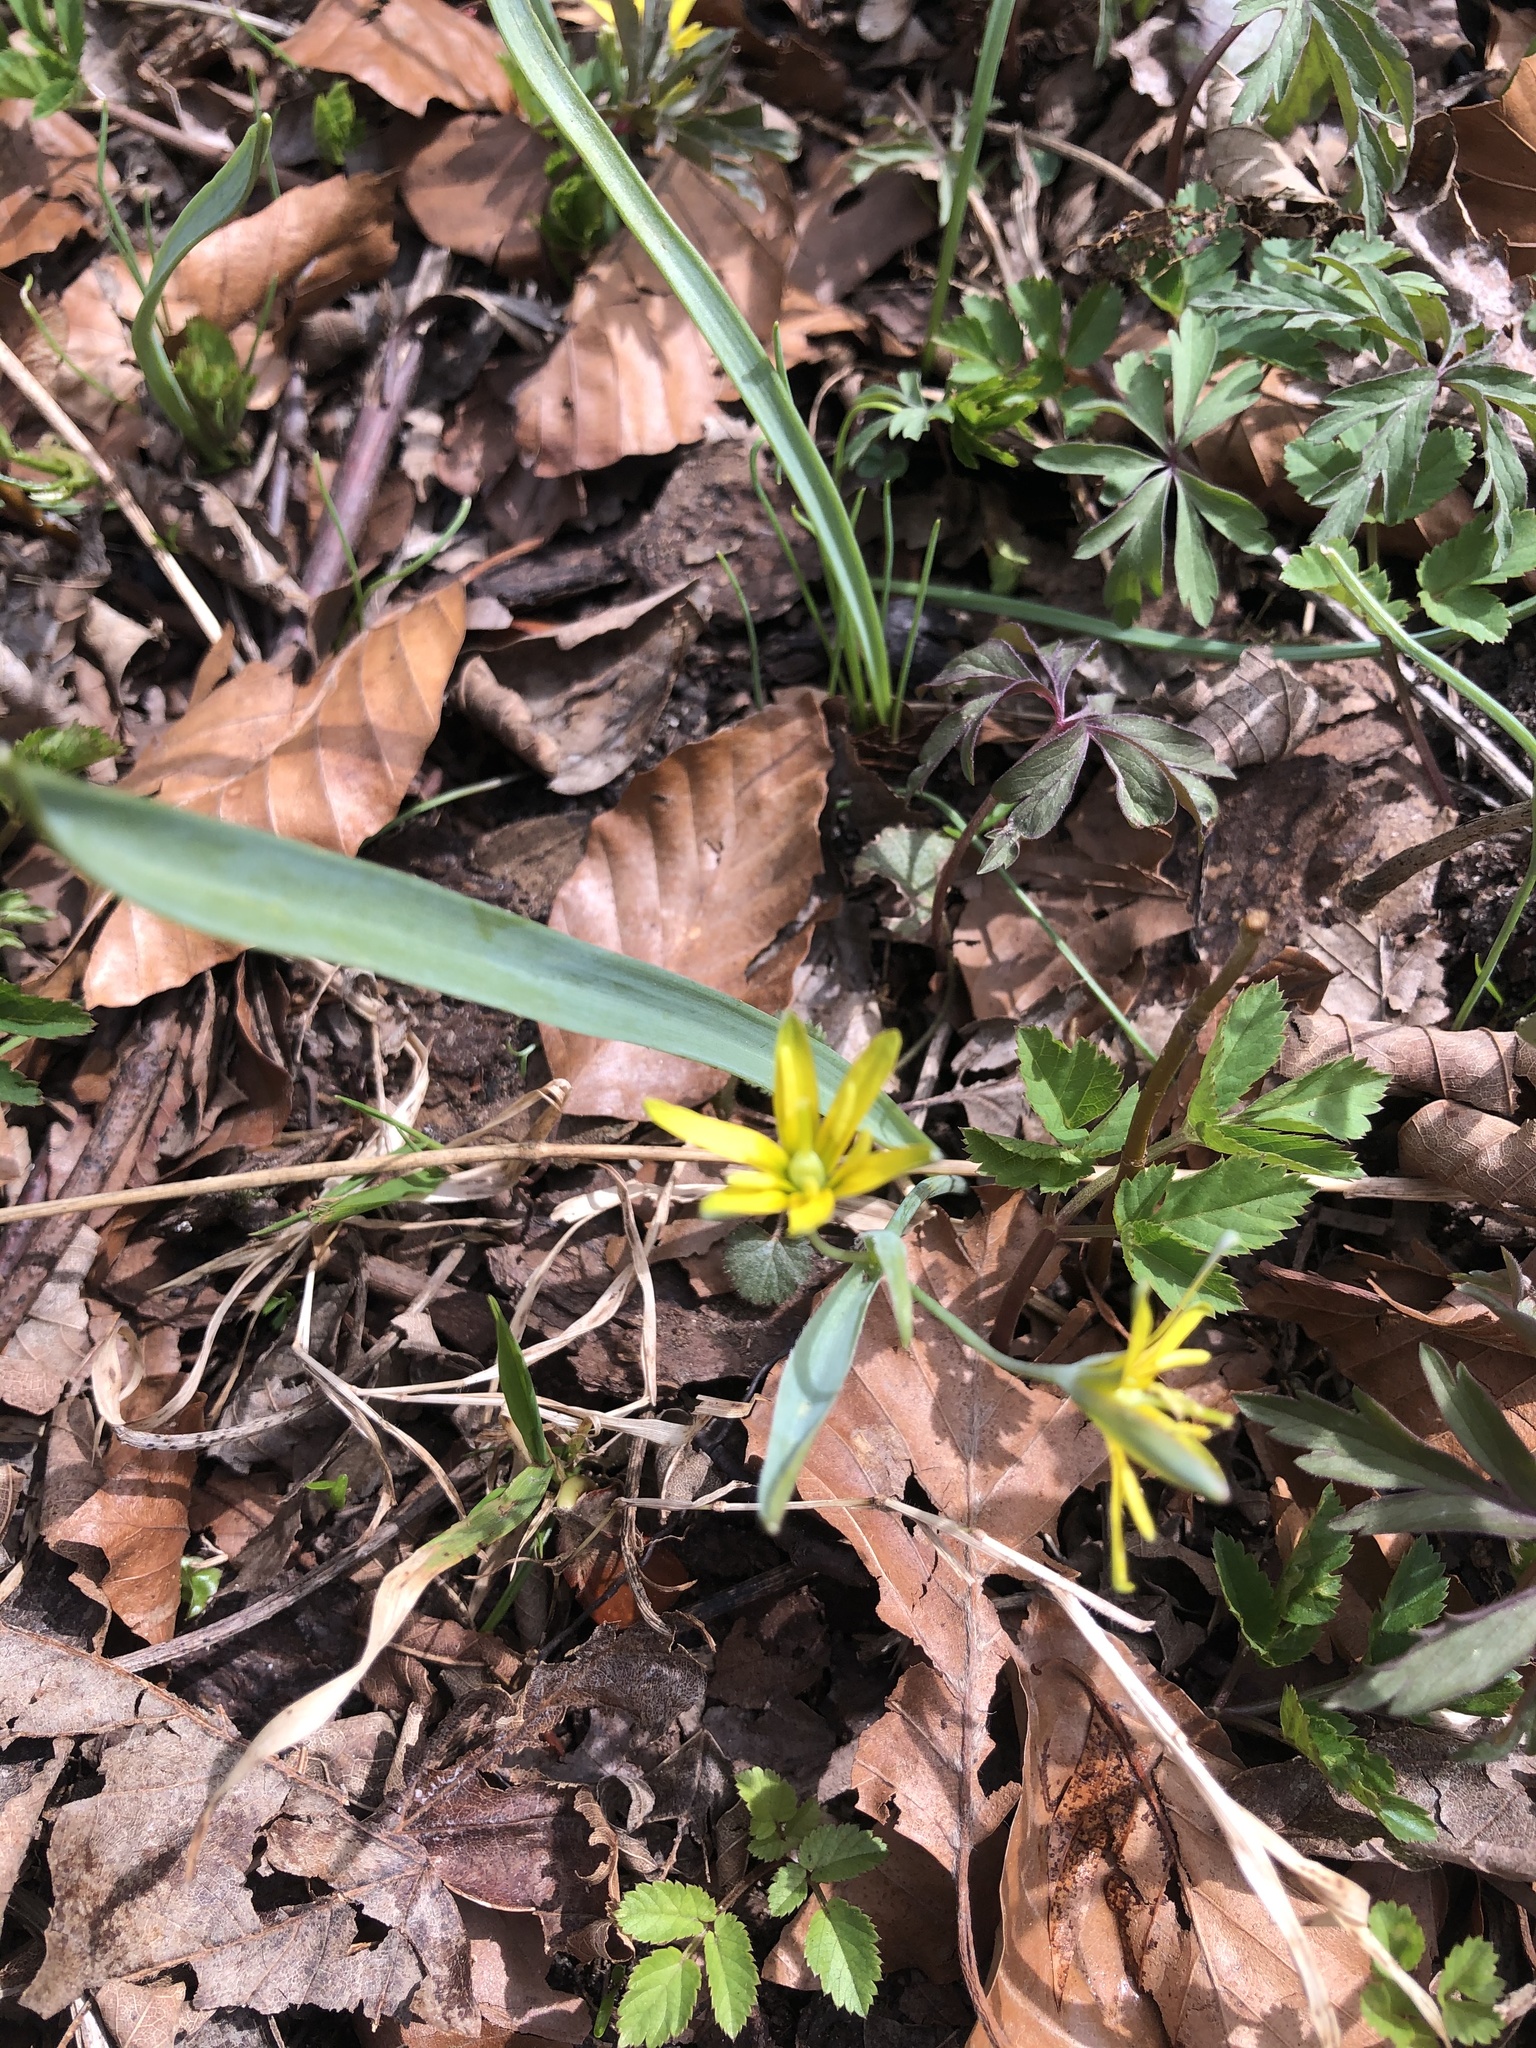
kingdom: Plantae
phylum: Tracheophyta
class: Liliopsida
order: Liliales
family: Liliaceae
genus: Gagea
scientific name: Gagea lutea
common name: Yellow star-of-bethlehem
